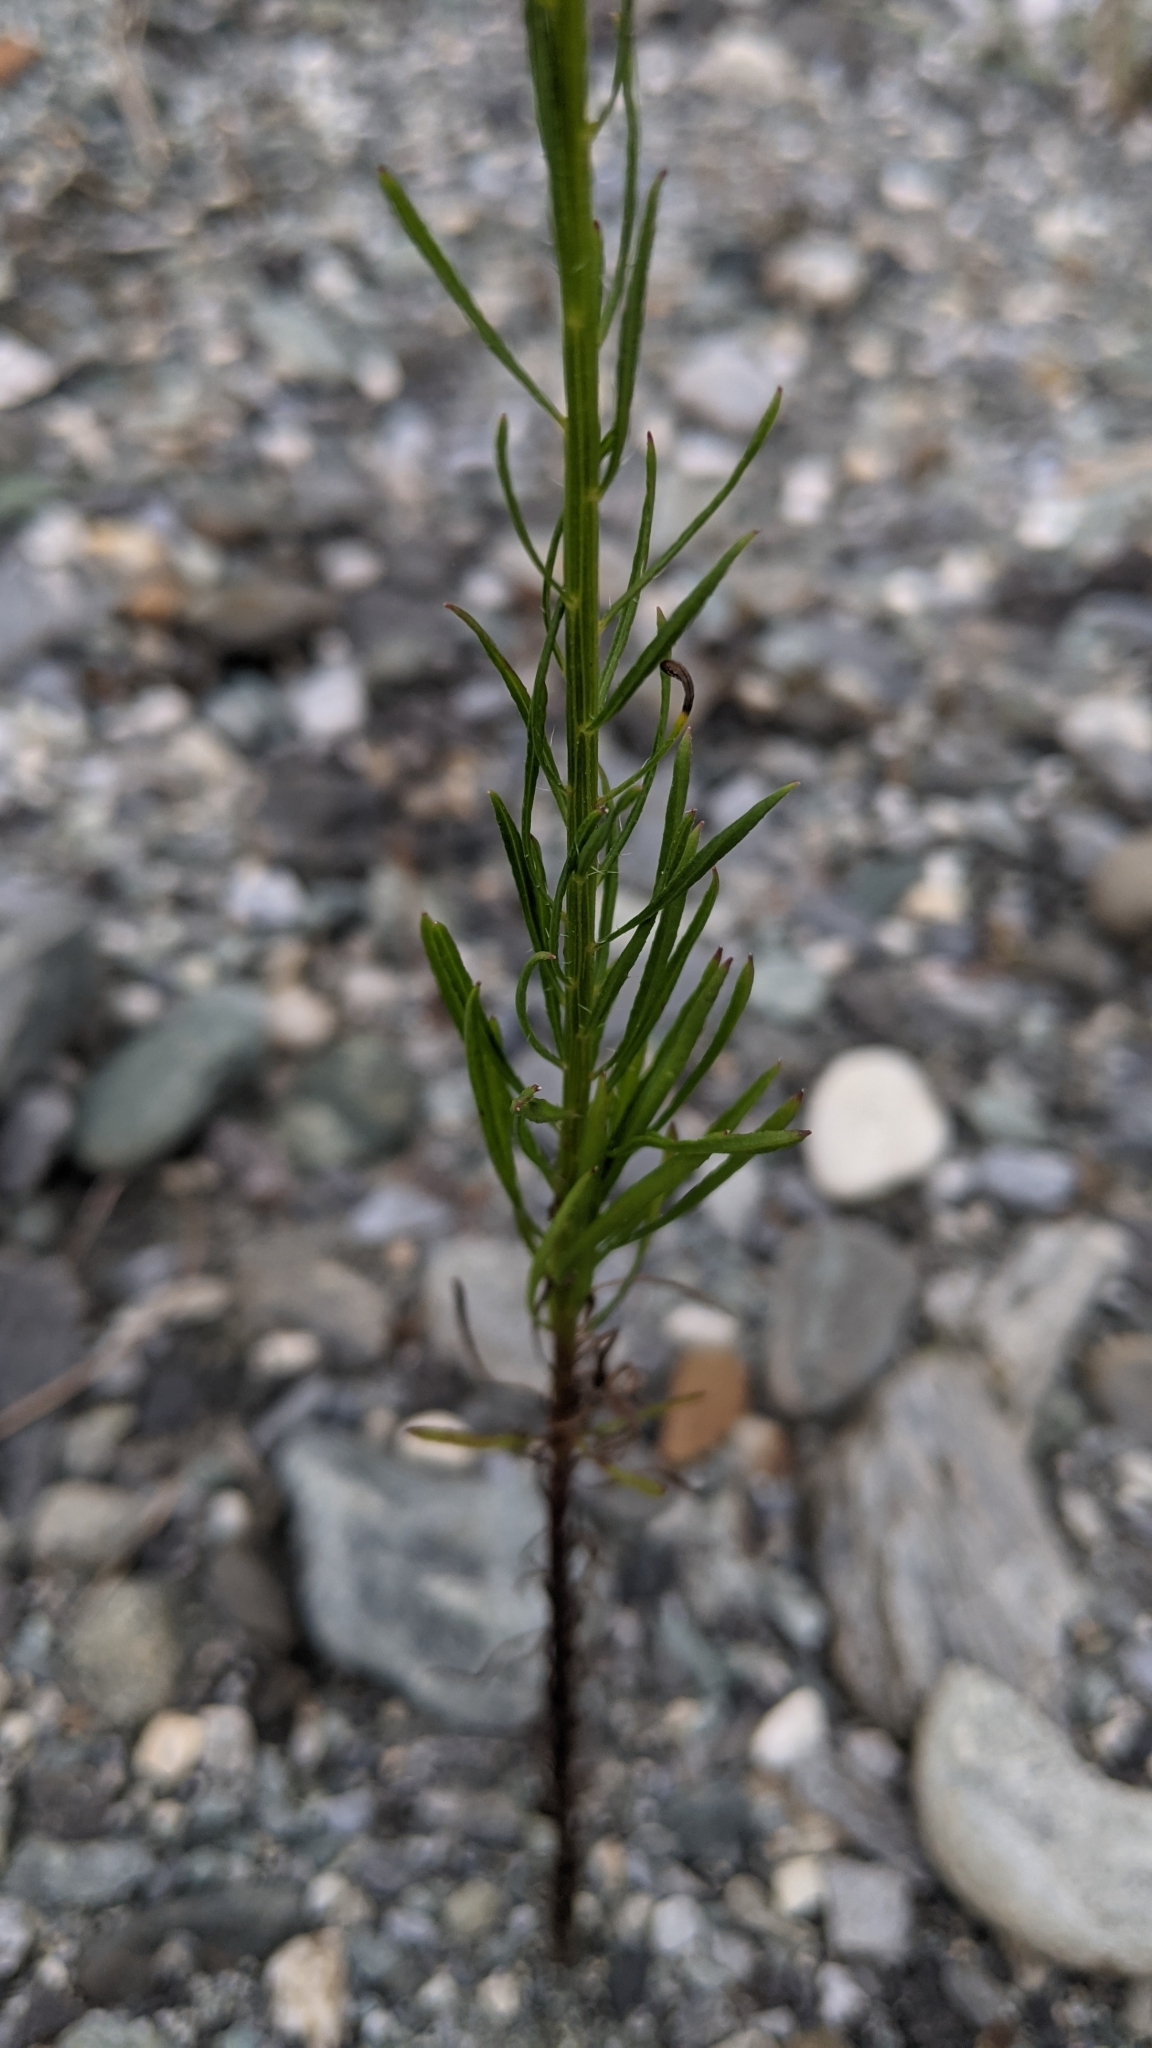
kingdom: Plantae
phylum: Tracheophyta
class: Magnoliopsida
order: Asterales
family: Asteraceae
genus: Erigeron
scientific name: Erigeron canadensis
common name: Canadian fleabane
